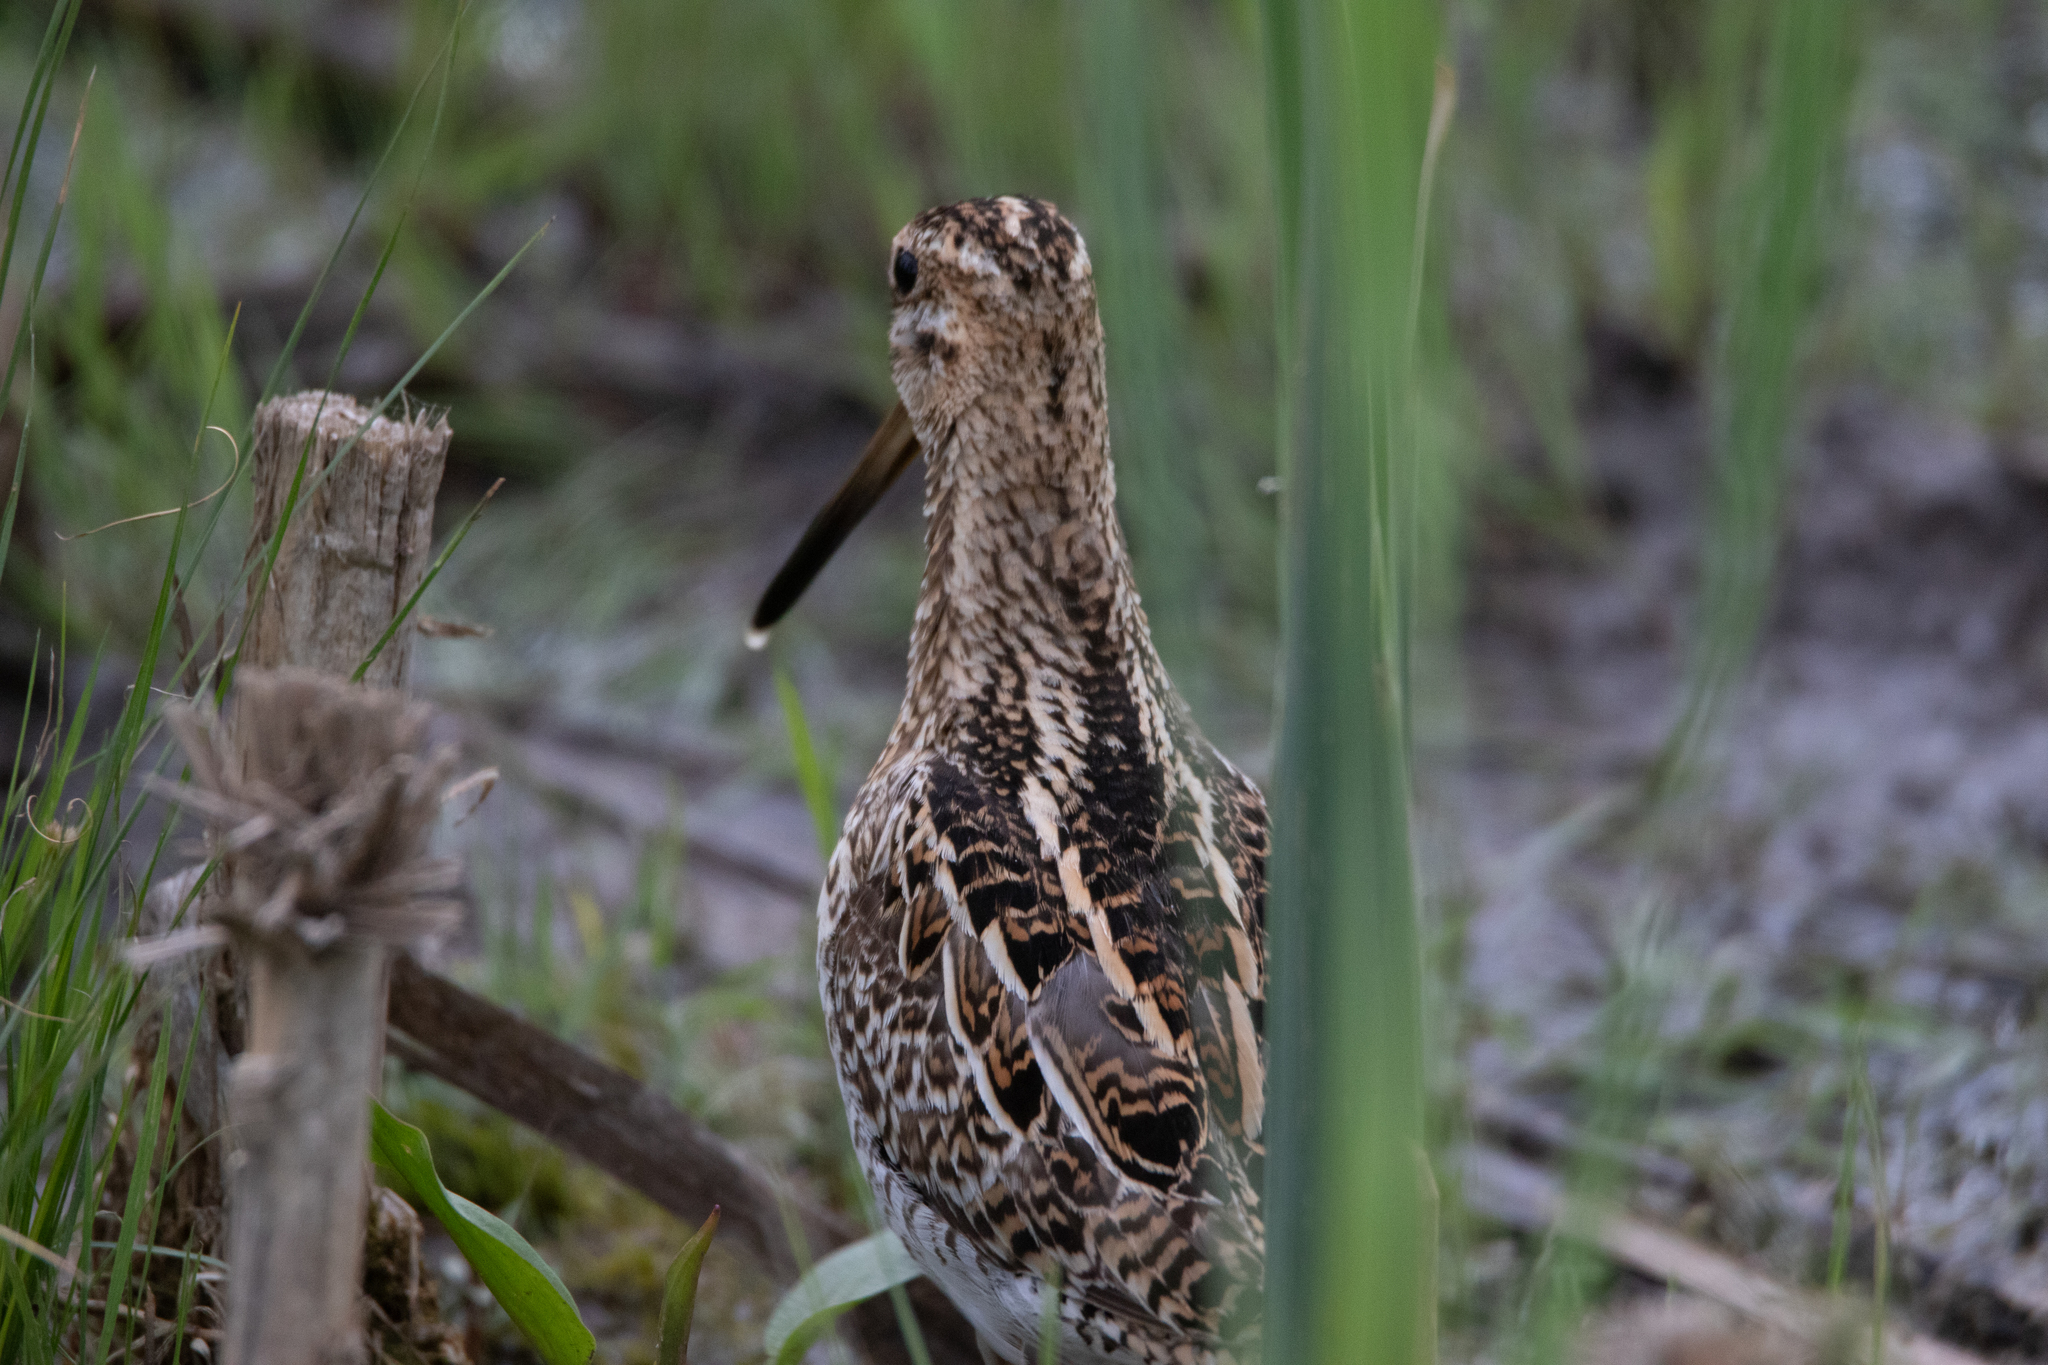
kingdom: Animalia
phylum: Chordata
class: Aves
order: Charadriiformes
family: Scolopacidae
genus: Gallinago
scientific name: Gallinago gallinago
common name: Common snipe
